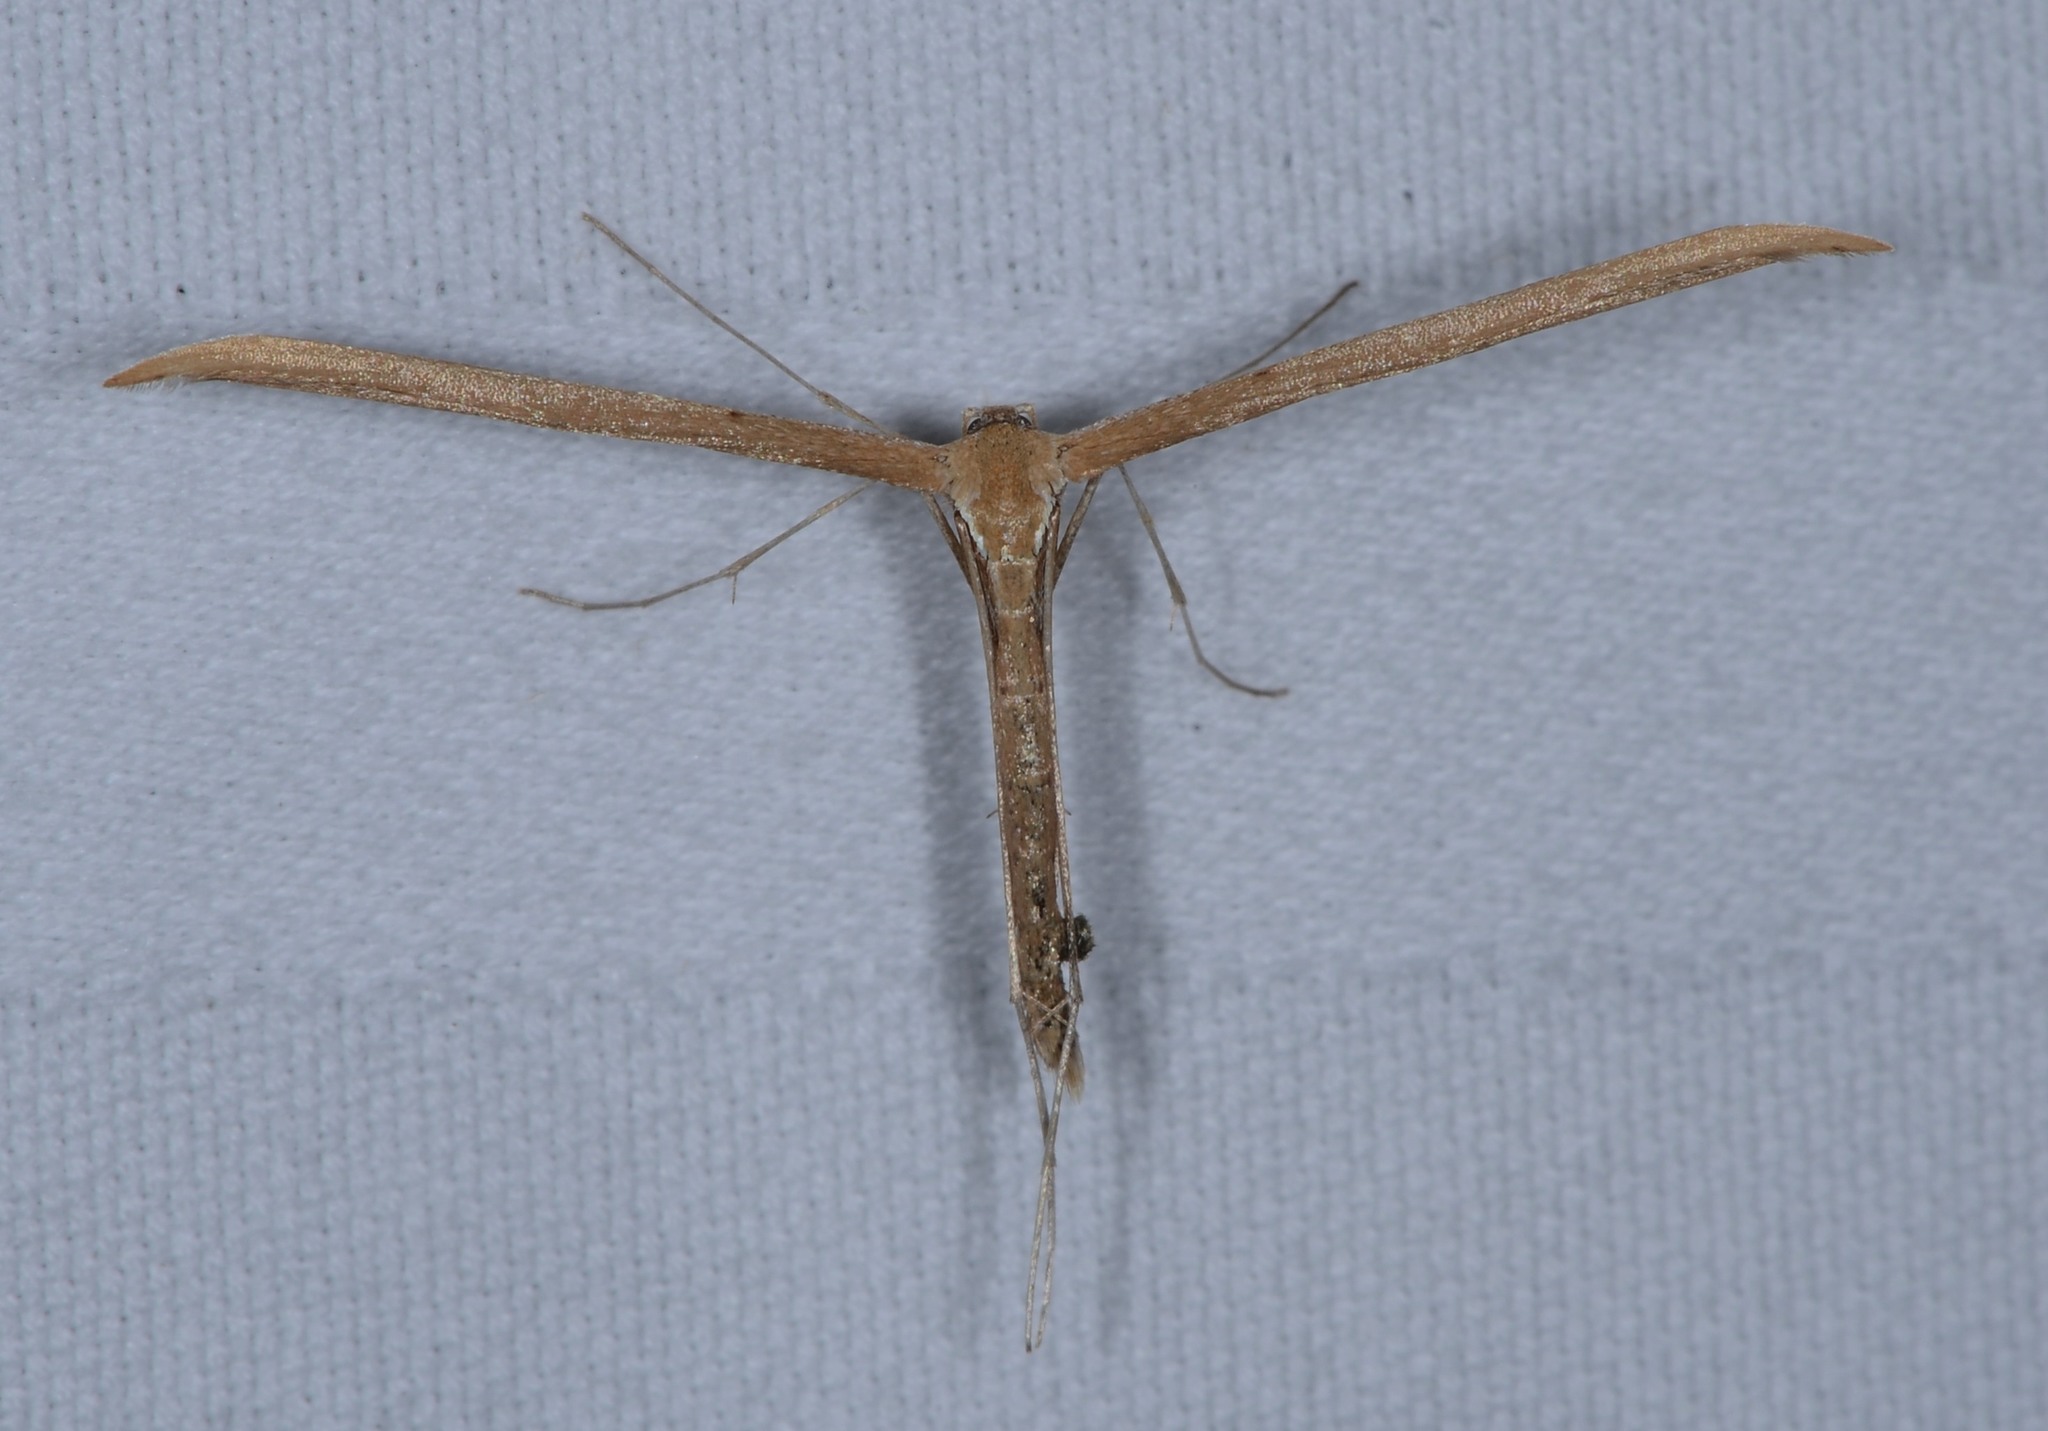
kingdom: Animalia
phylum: Arthropoda
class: Insecta
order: Lepidoptera
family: Pterophoridae
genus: Emmelina
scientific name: Emmelina monodactyla
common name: Common plume
